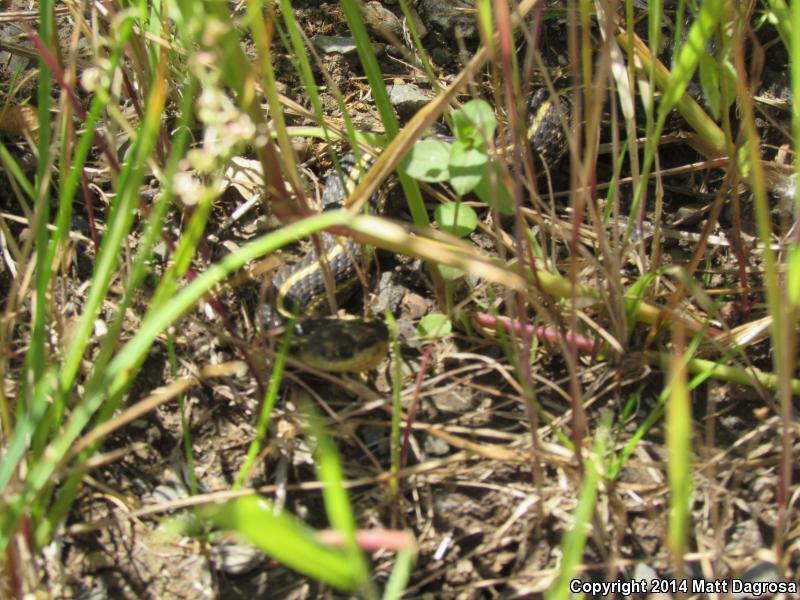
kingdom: Animalia
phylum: Chordata
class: Squamata
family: Colubridae
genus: Thamnophis
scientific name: Thamnophis ordinoides
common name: Northwestern garter snake
